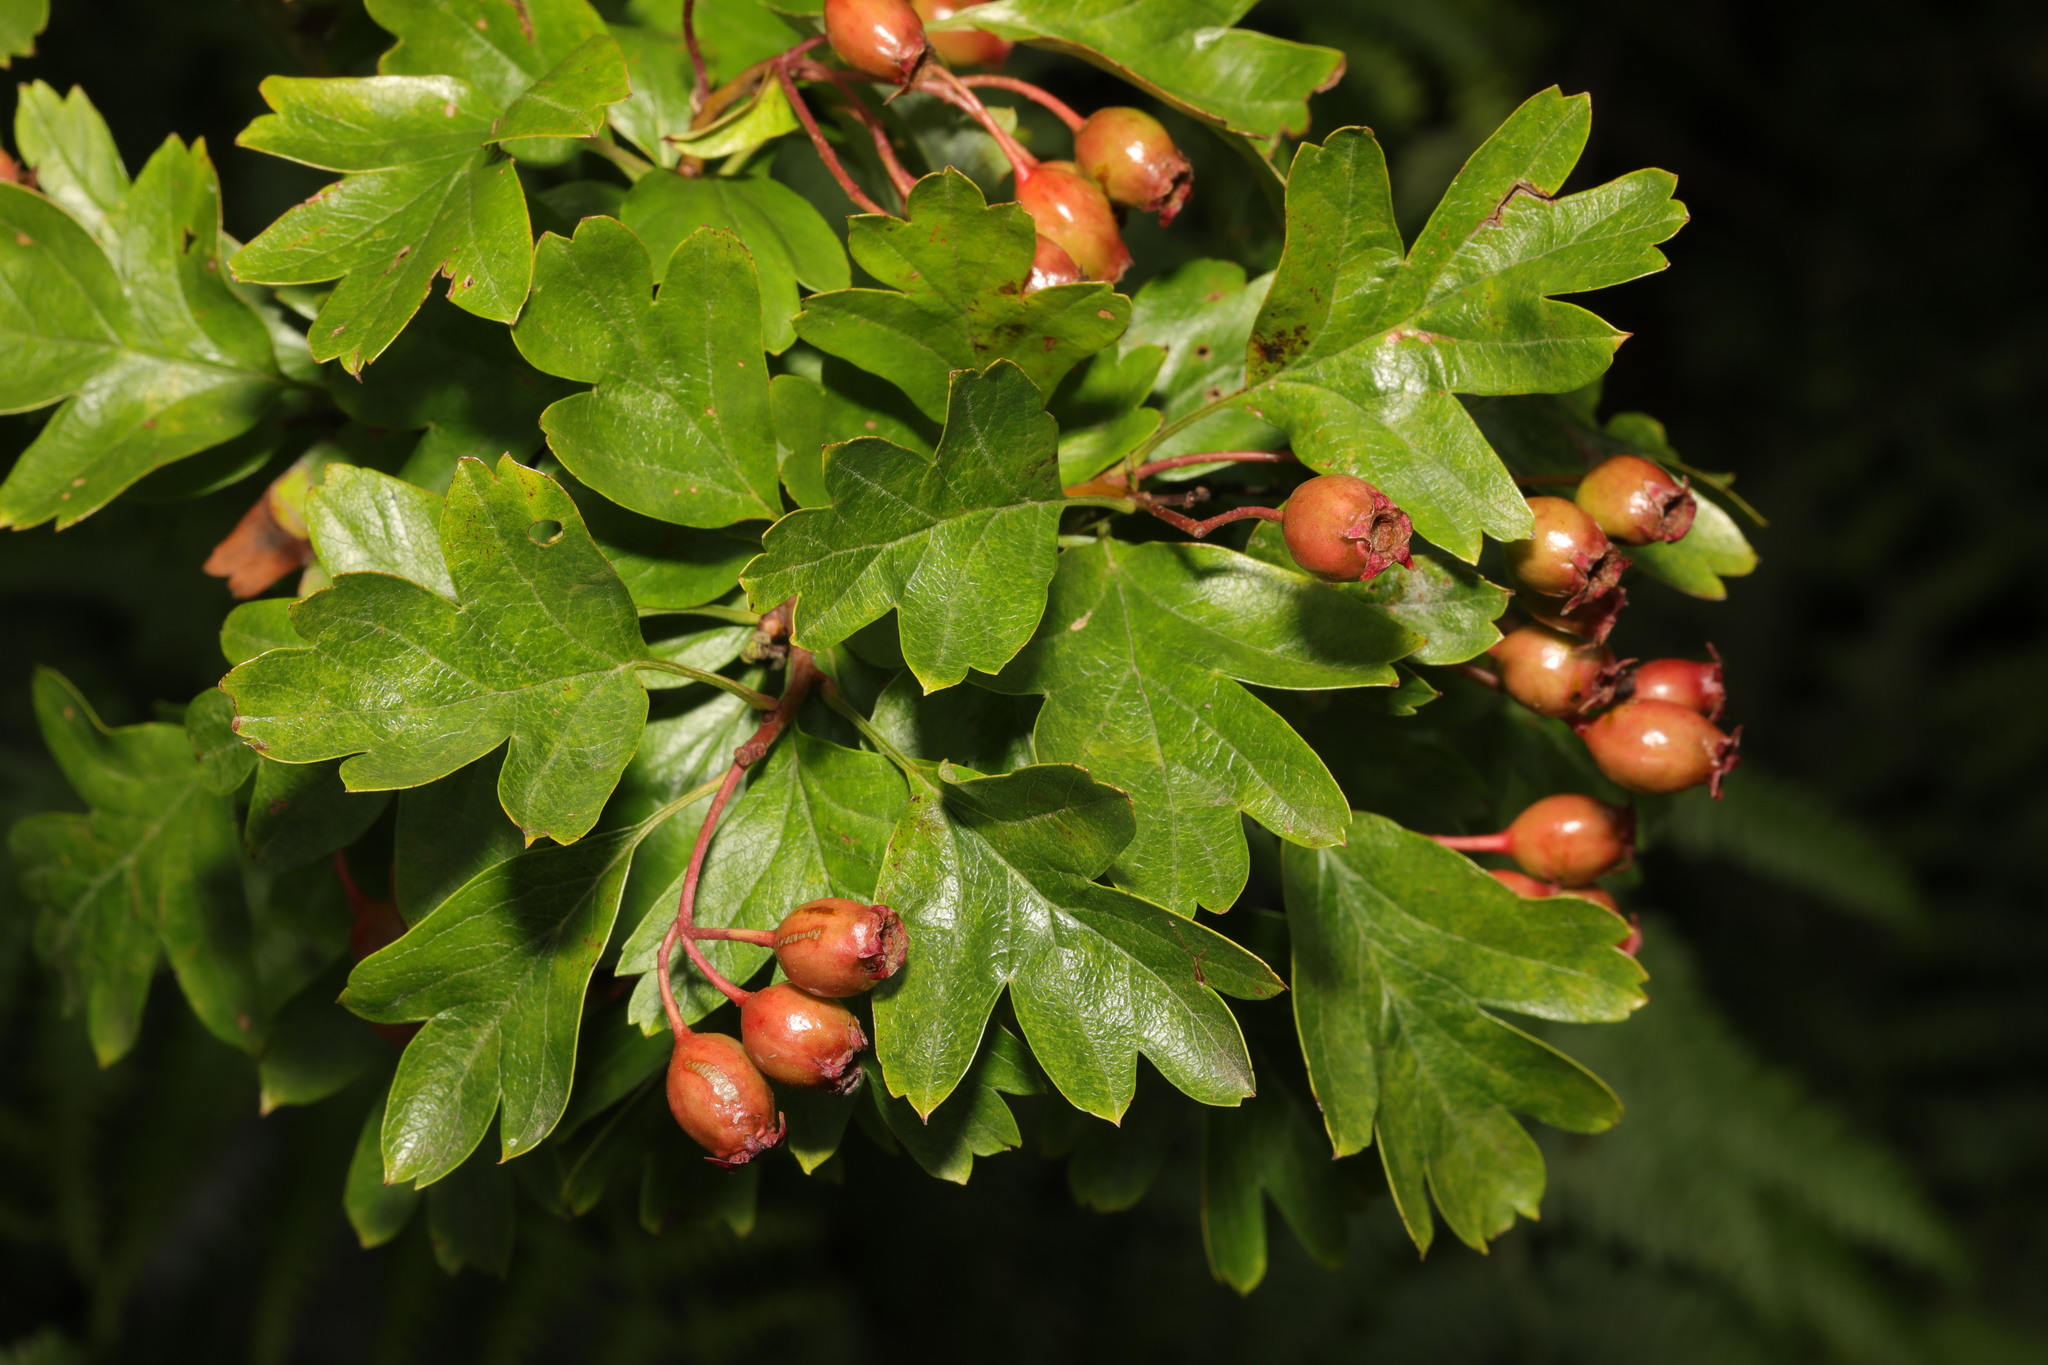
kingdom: Plantae
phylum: Tracheophyta
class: Magnoliopsida
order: Rosales
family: Rosaceae
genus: Crataegus
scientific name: Crataegus monogyna
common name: Hawthorn
